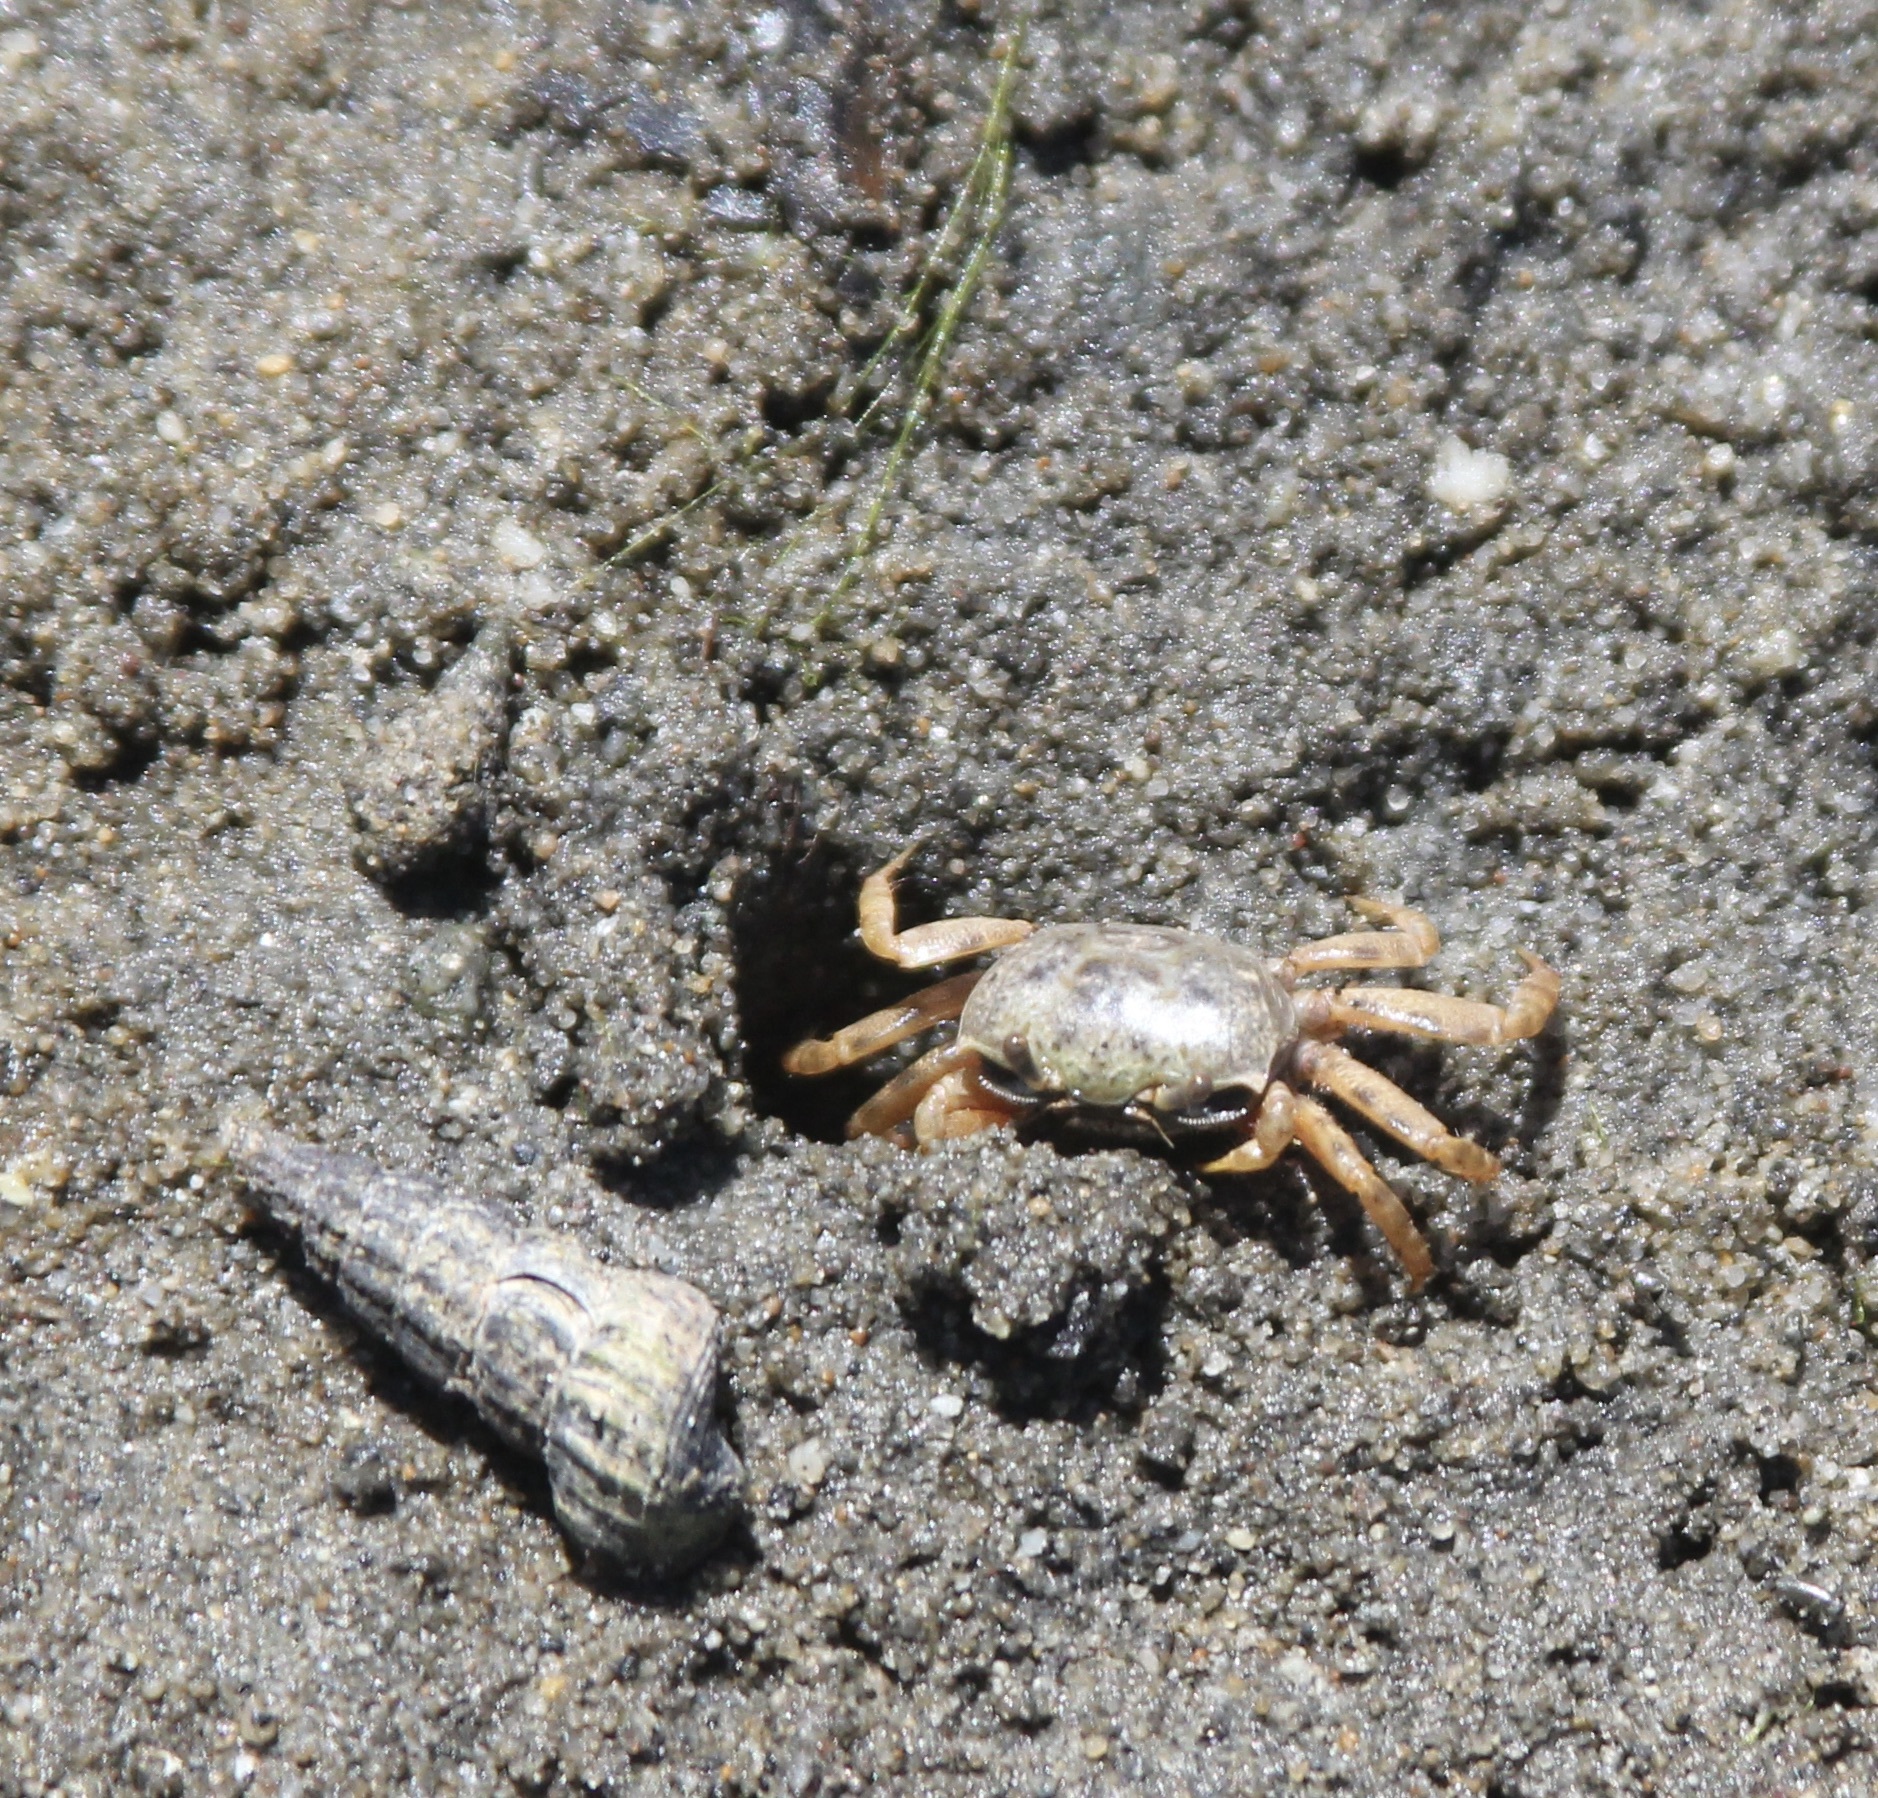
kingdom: Animalia
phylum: Arthropoda
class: Malacostraca
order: Decapoda
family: Ocypodidae
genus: Leptuca
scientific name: Leptuca crenulata
